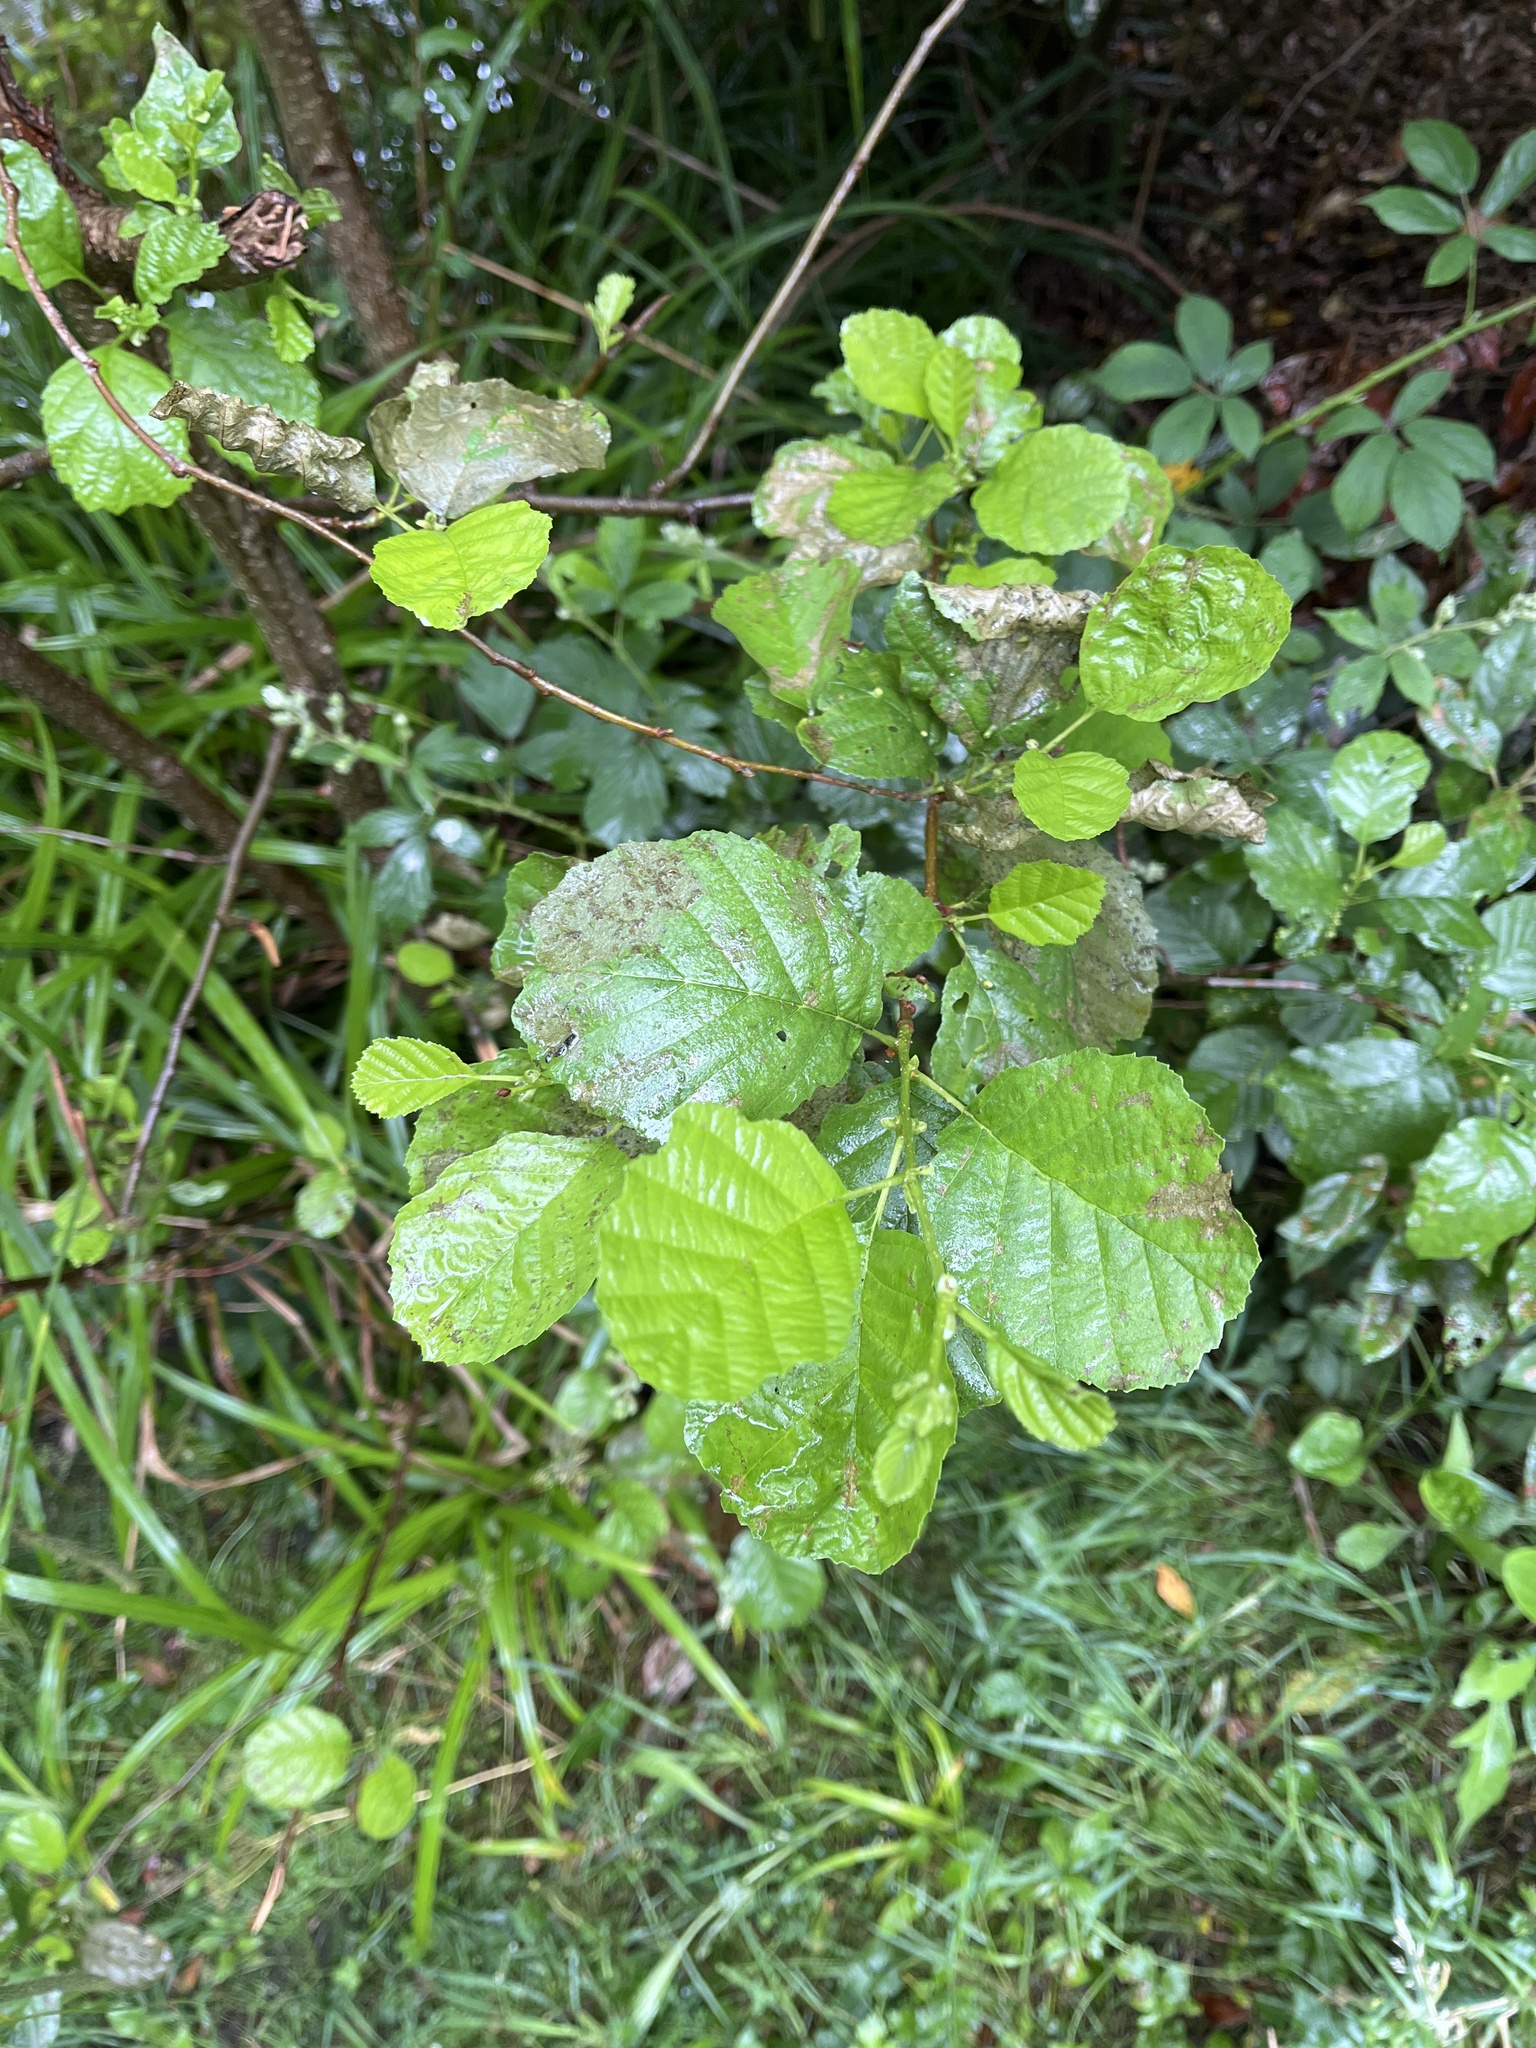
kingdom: Plantae
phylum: Tracheophyta
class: Magnoliopsida
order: Fagales
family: Betulaceae
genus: Alnus
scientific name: Alnus glutinosa
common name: Black alder
